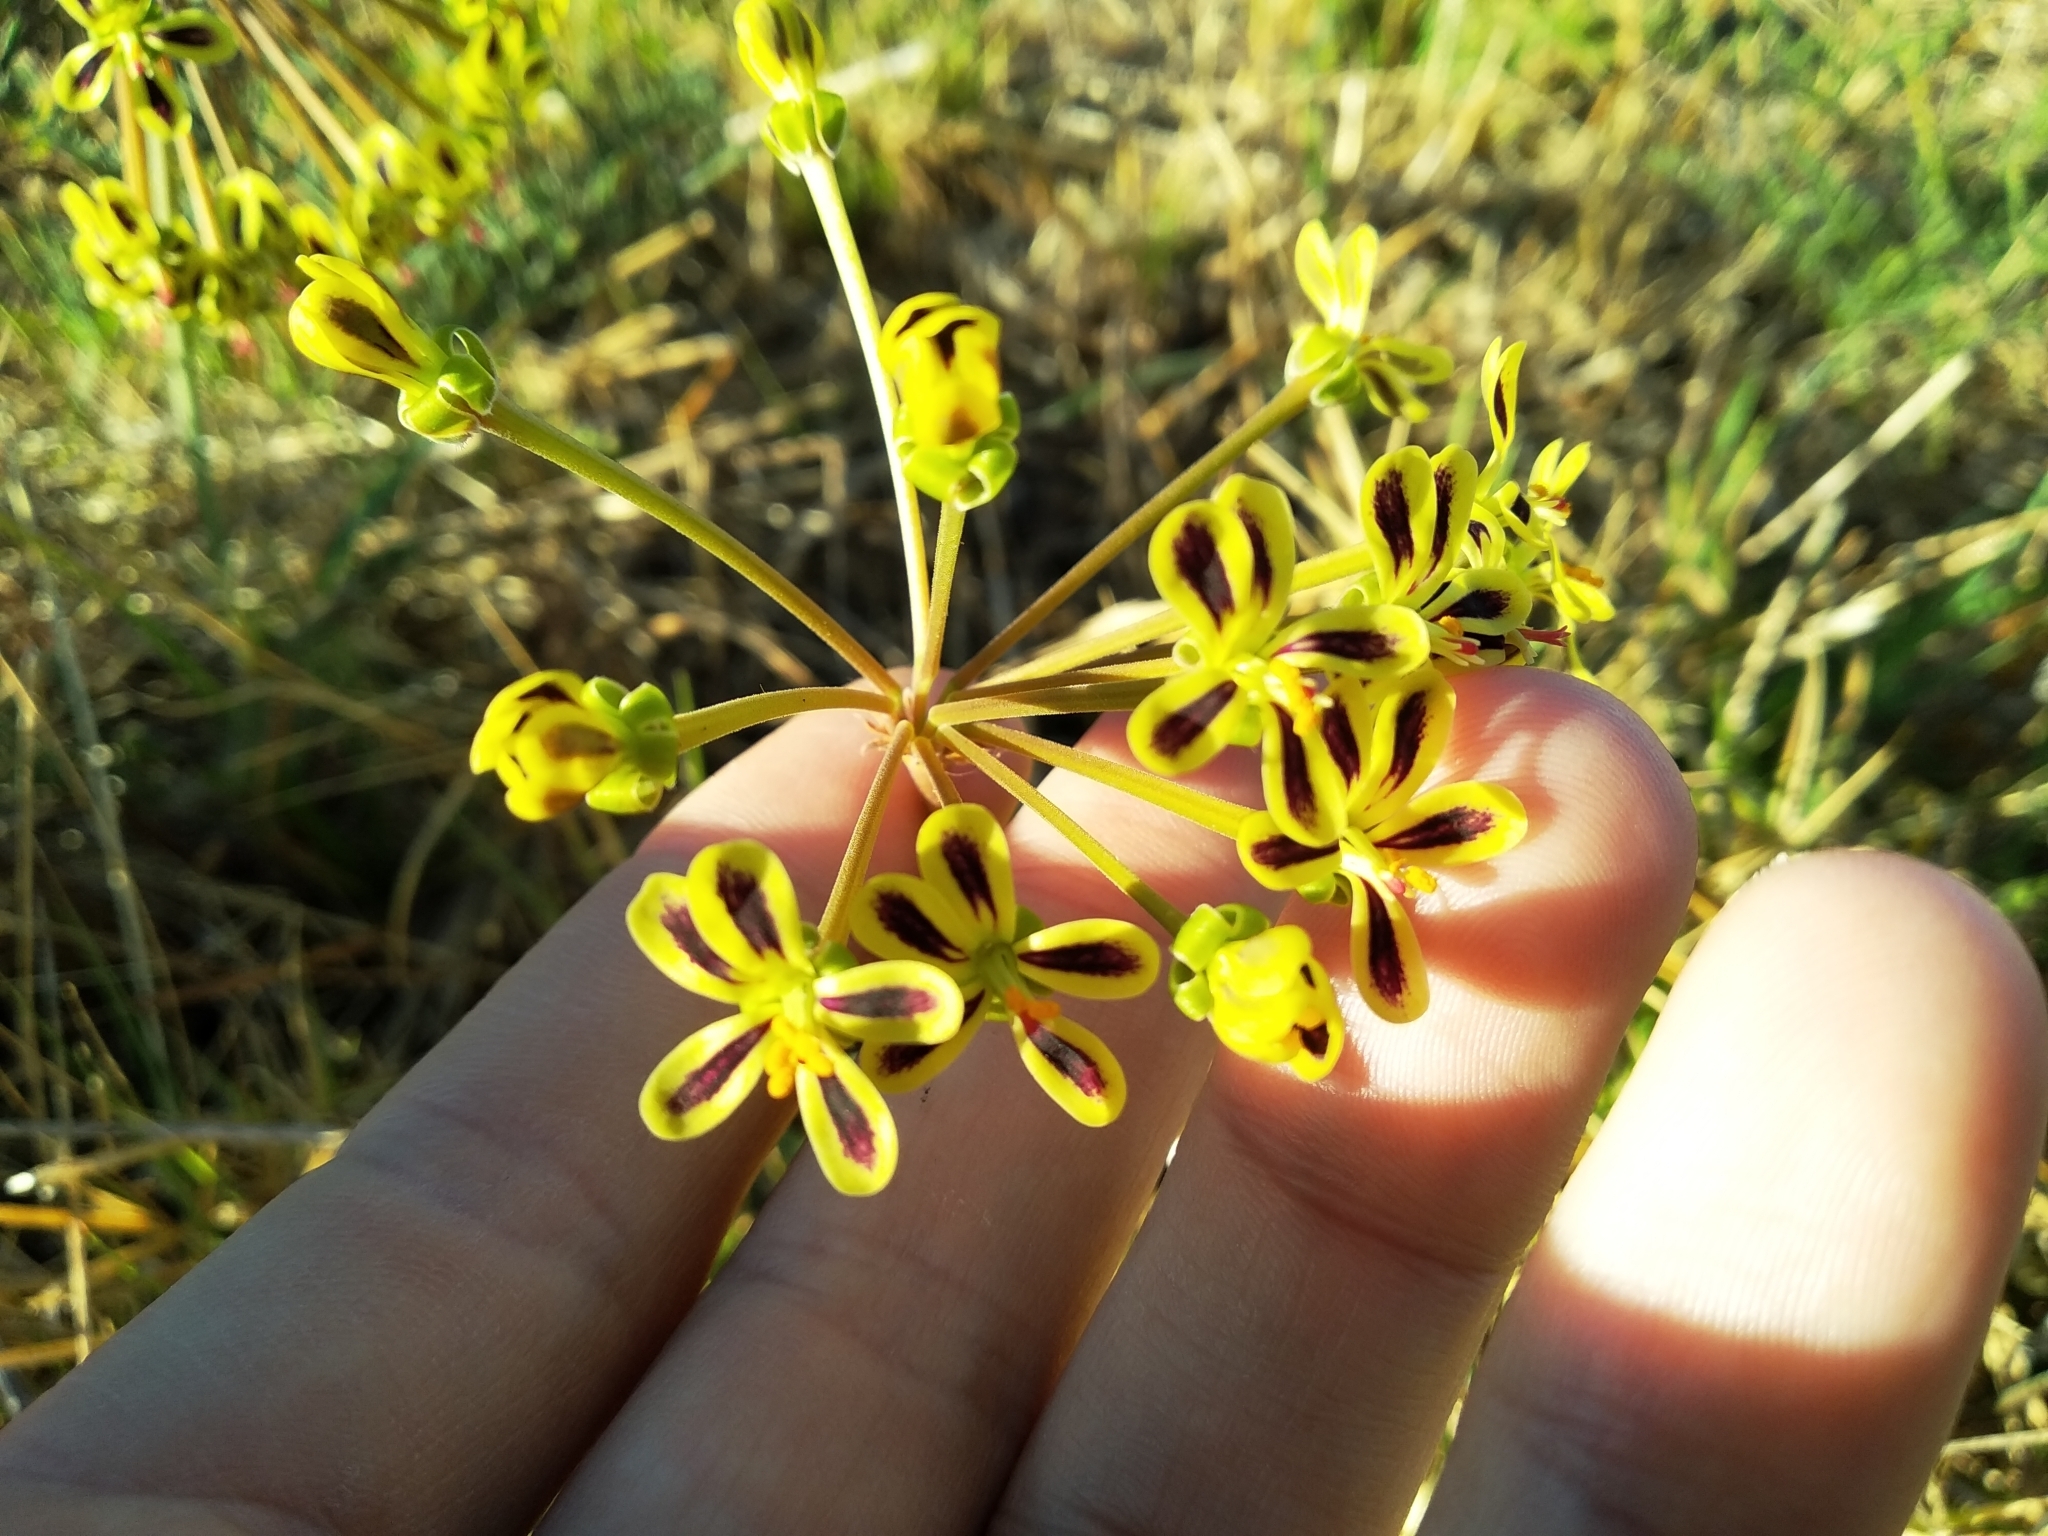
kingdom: Plantae
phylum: Tracheophyta
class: Magnoliopsida
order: Geraniales
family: Geraniaceae
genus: Pelargonium
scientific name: Pelargonium multiradiatum
